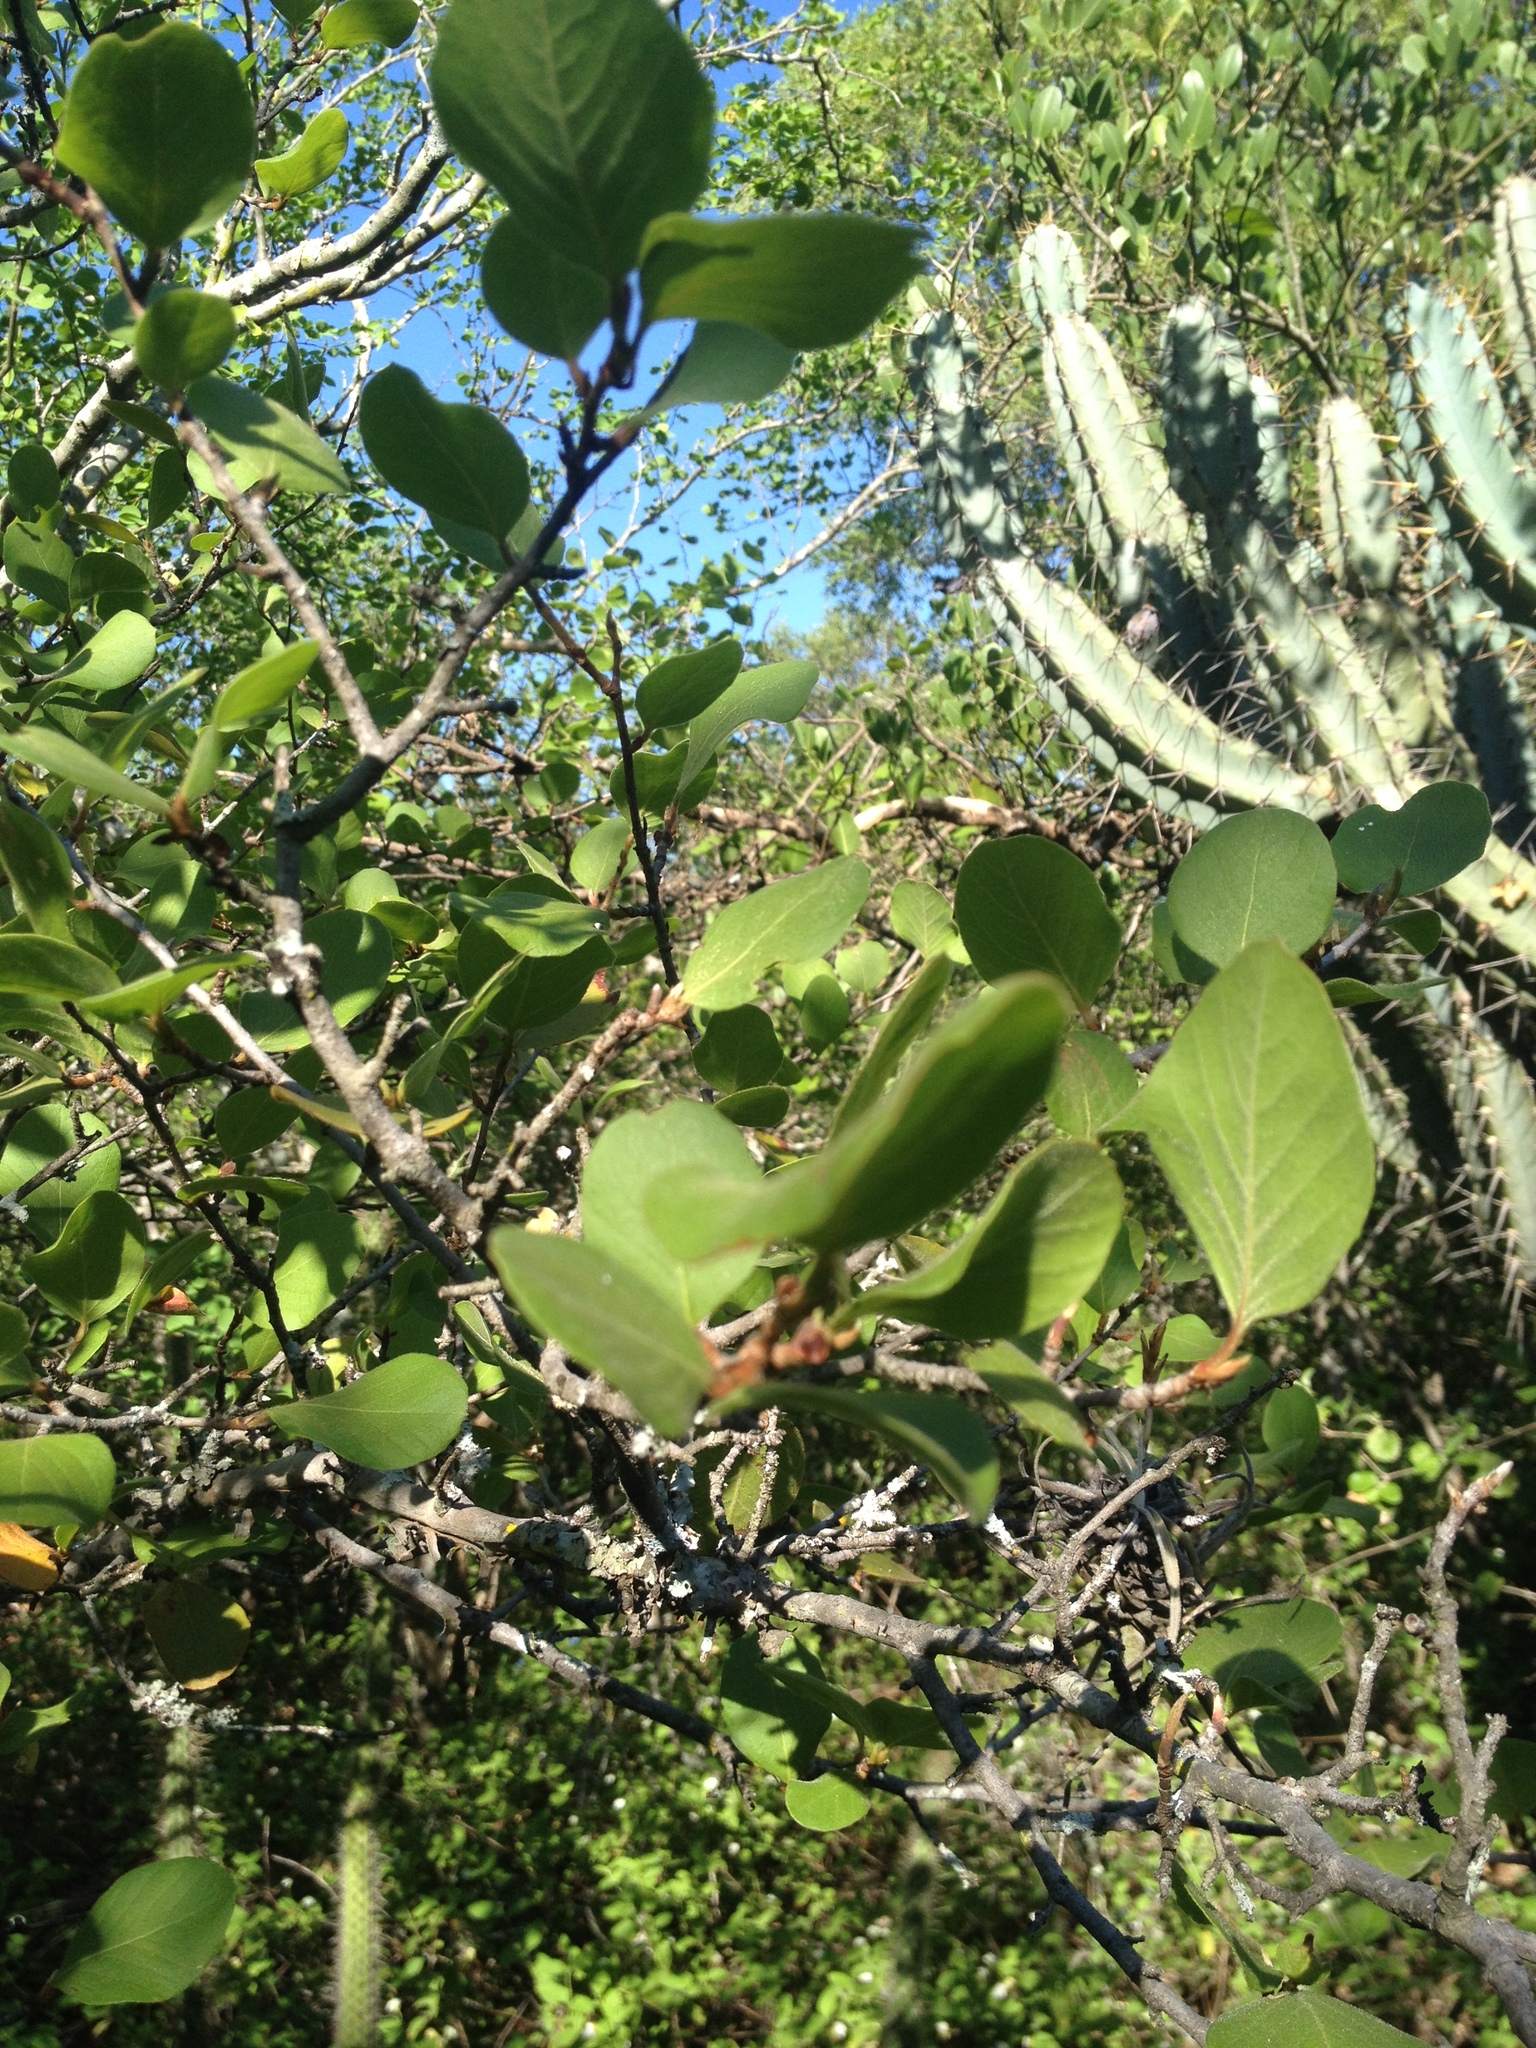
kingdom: Plantae
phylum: Tracheophyta
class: Magnoliopsida
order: Caryophyllales
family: Polygonaceae
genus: Salta
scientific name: Salta triflora
